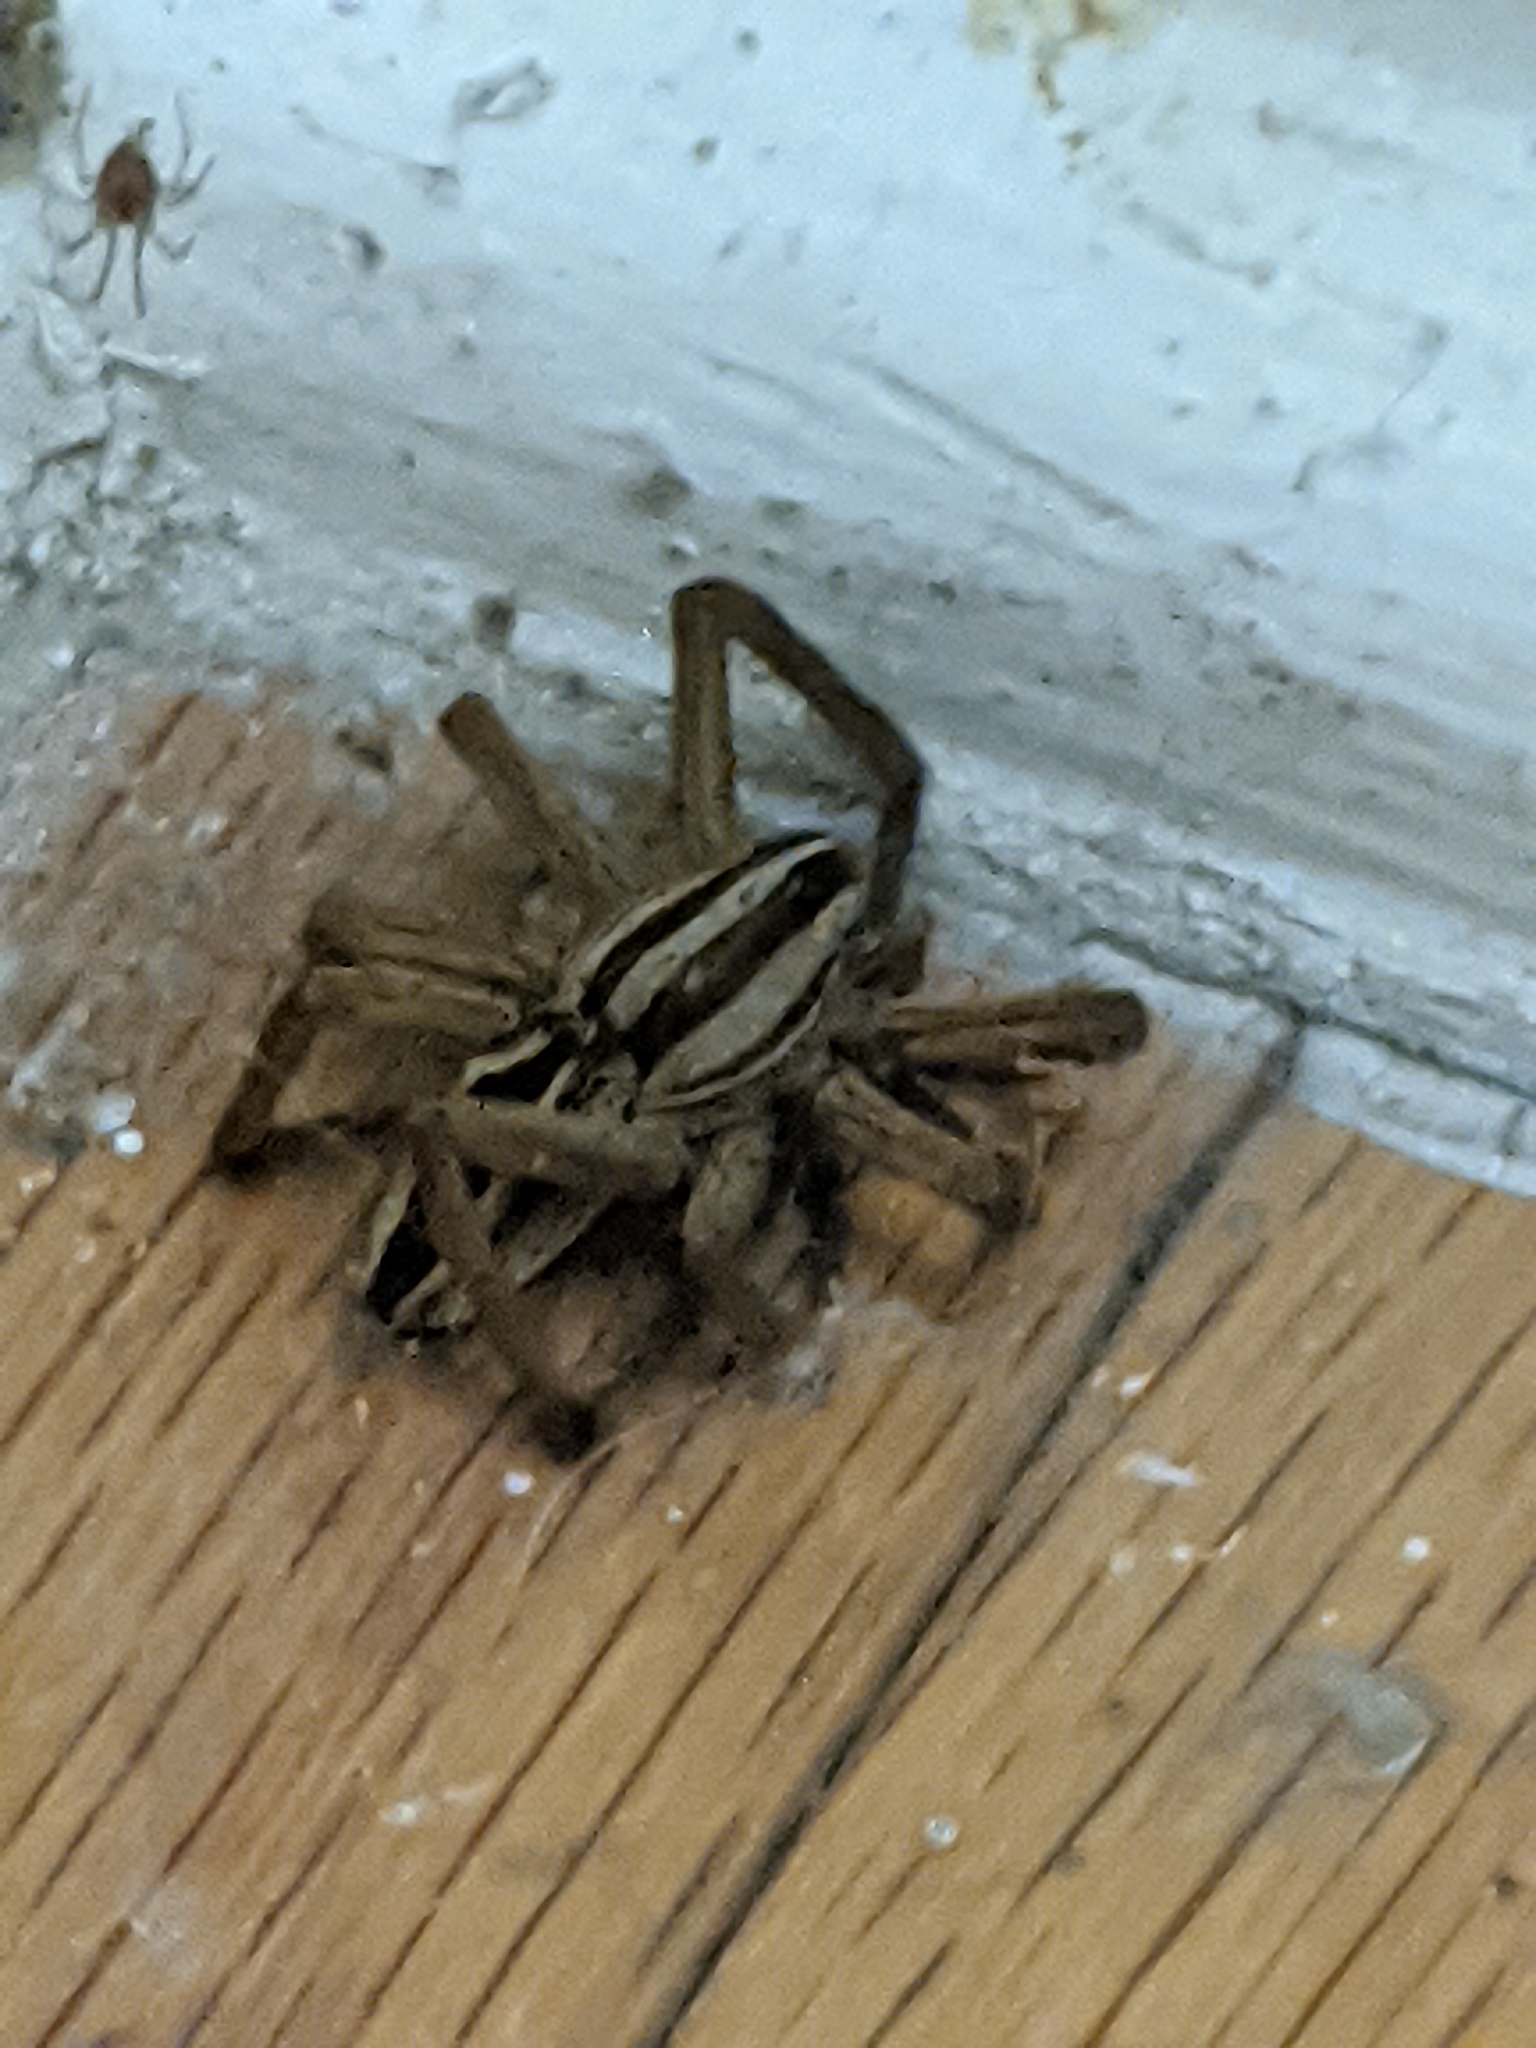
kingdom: Animalia
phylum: Arthropoda
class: Arachnida
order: Araneae
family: Lycosidae
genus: Rabidosa
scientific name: Rabidosa rabida
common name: Rabid wolf spider
